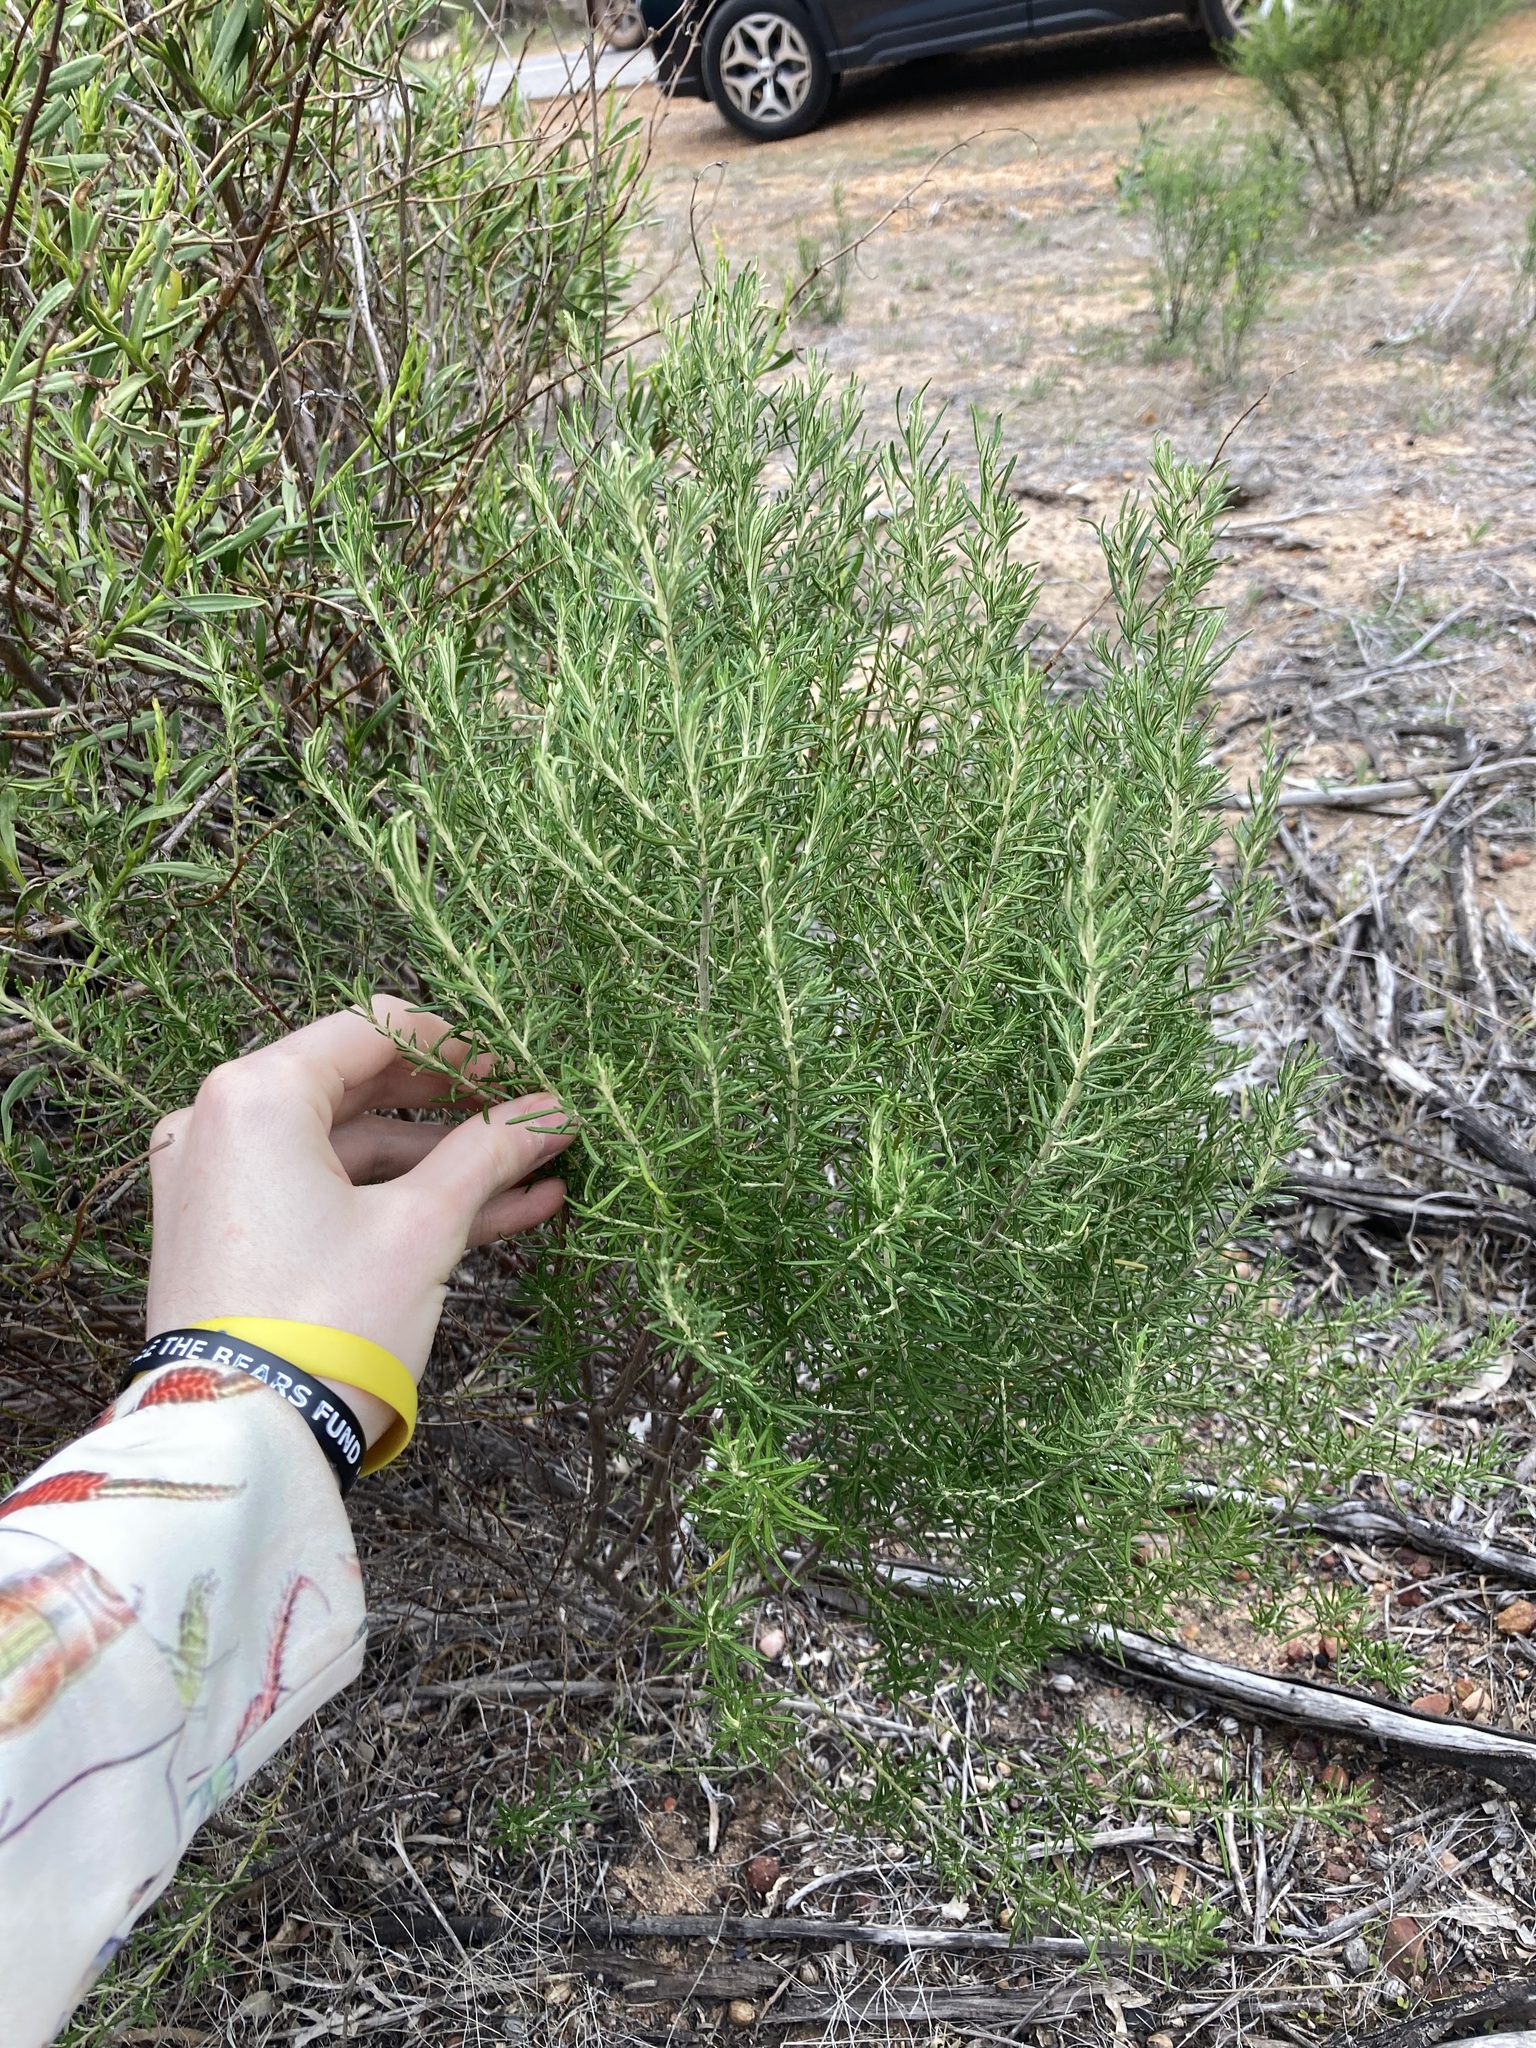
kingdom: Plantae
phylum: Tracheophyta
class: Magnoliopsida
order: Asterales
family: Asteraceae
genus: Olearia
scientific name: Olearia axillaris
